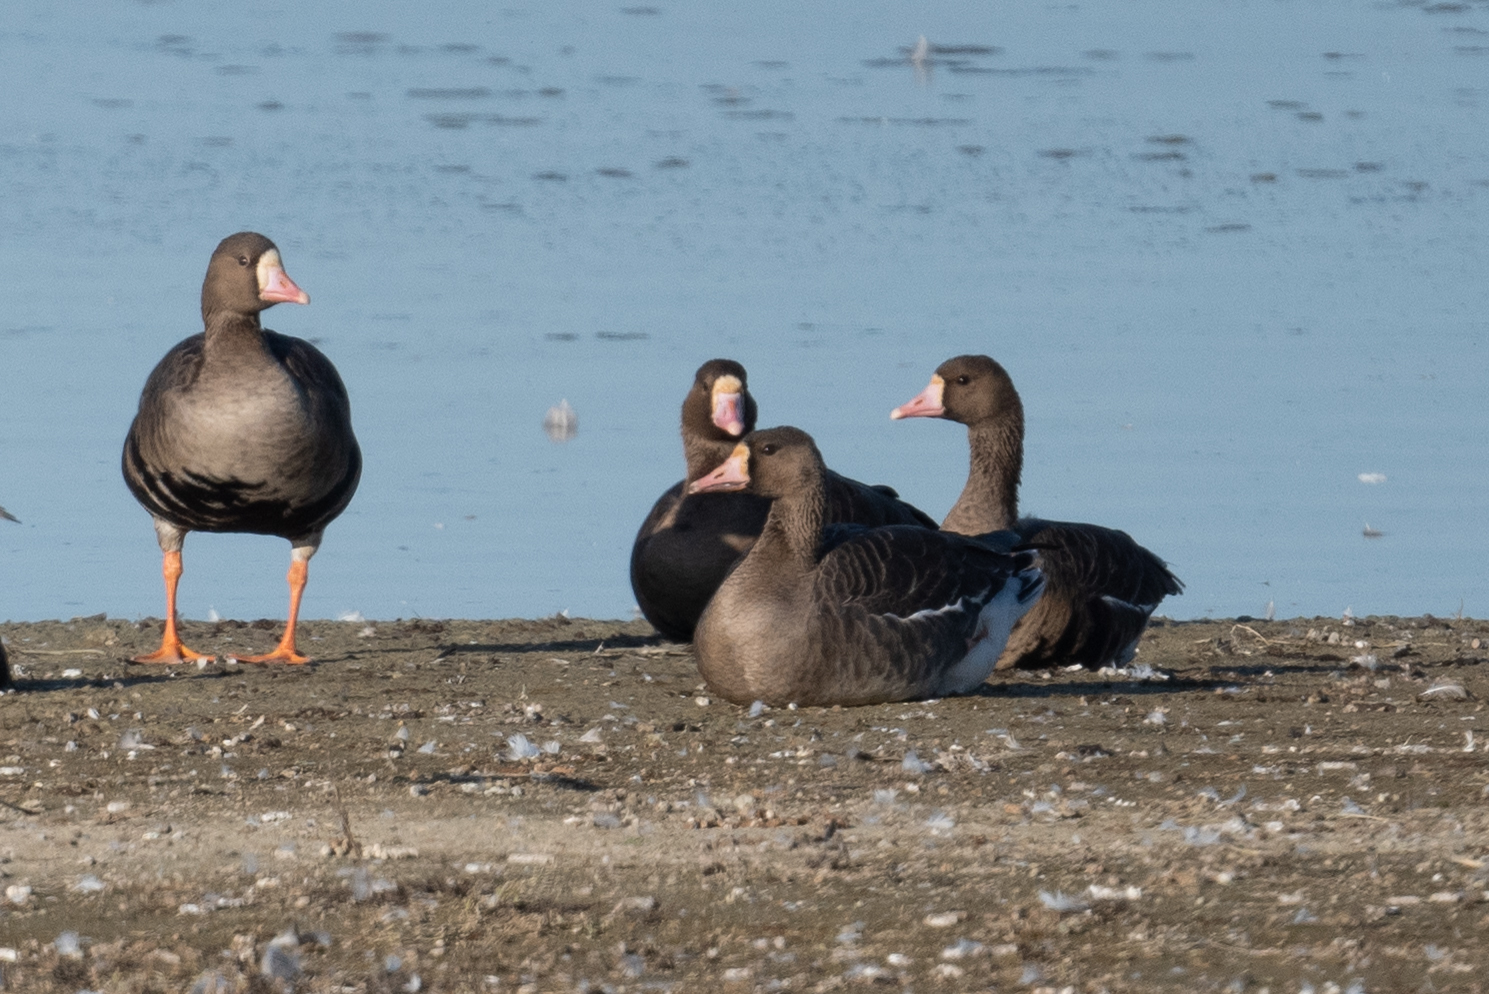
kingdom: Animalia
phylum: Chordata
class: Aves
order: Anseriformes
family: Anatidae
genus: Anser
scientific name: Anser albifrons
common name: Greater white-fronted goose
